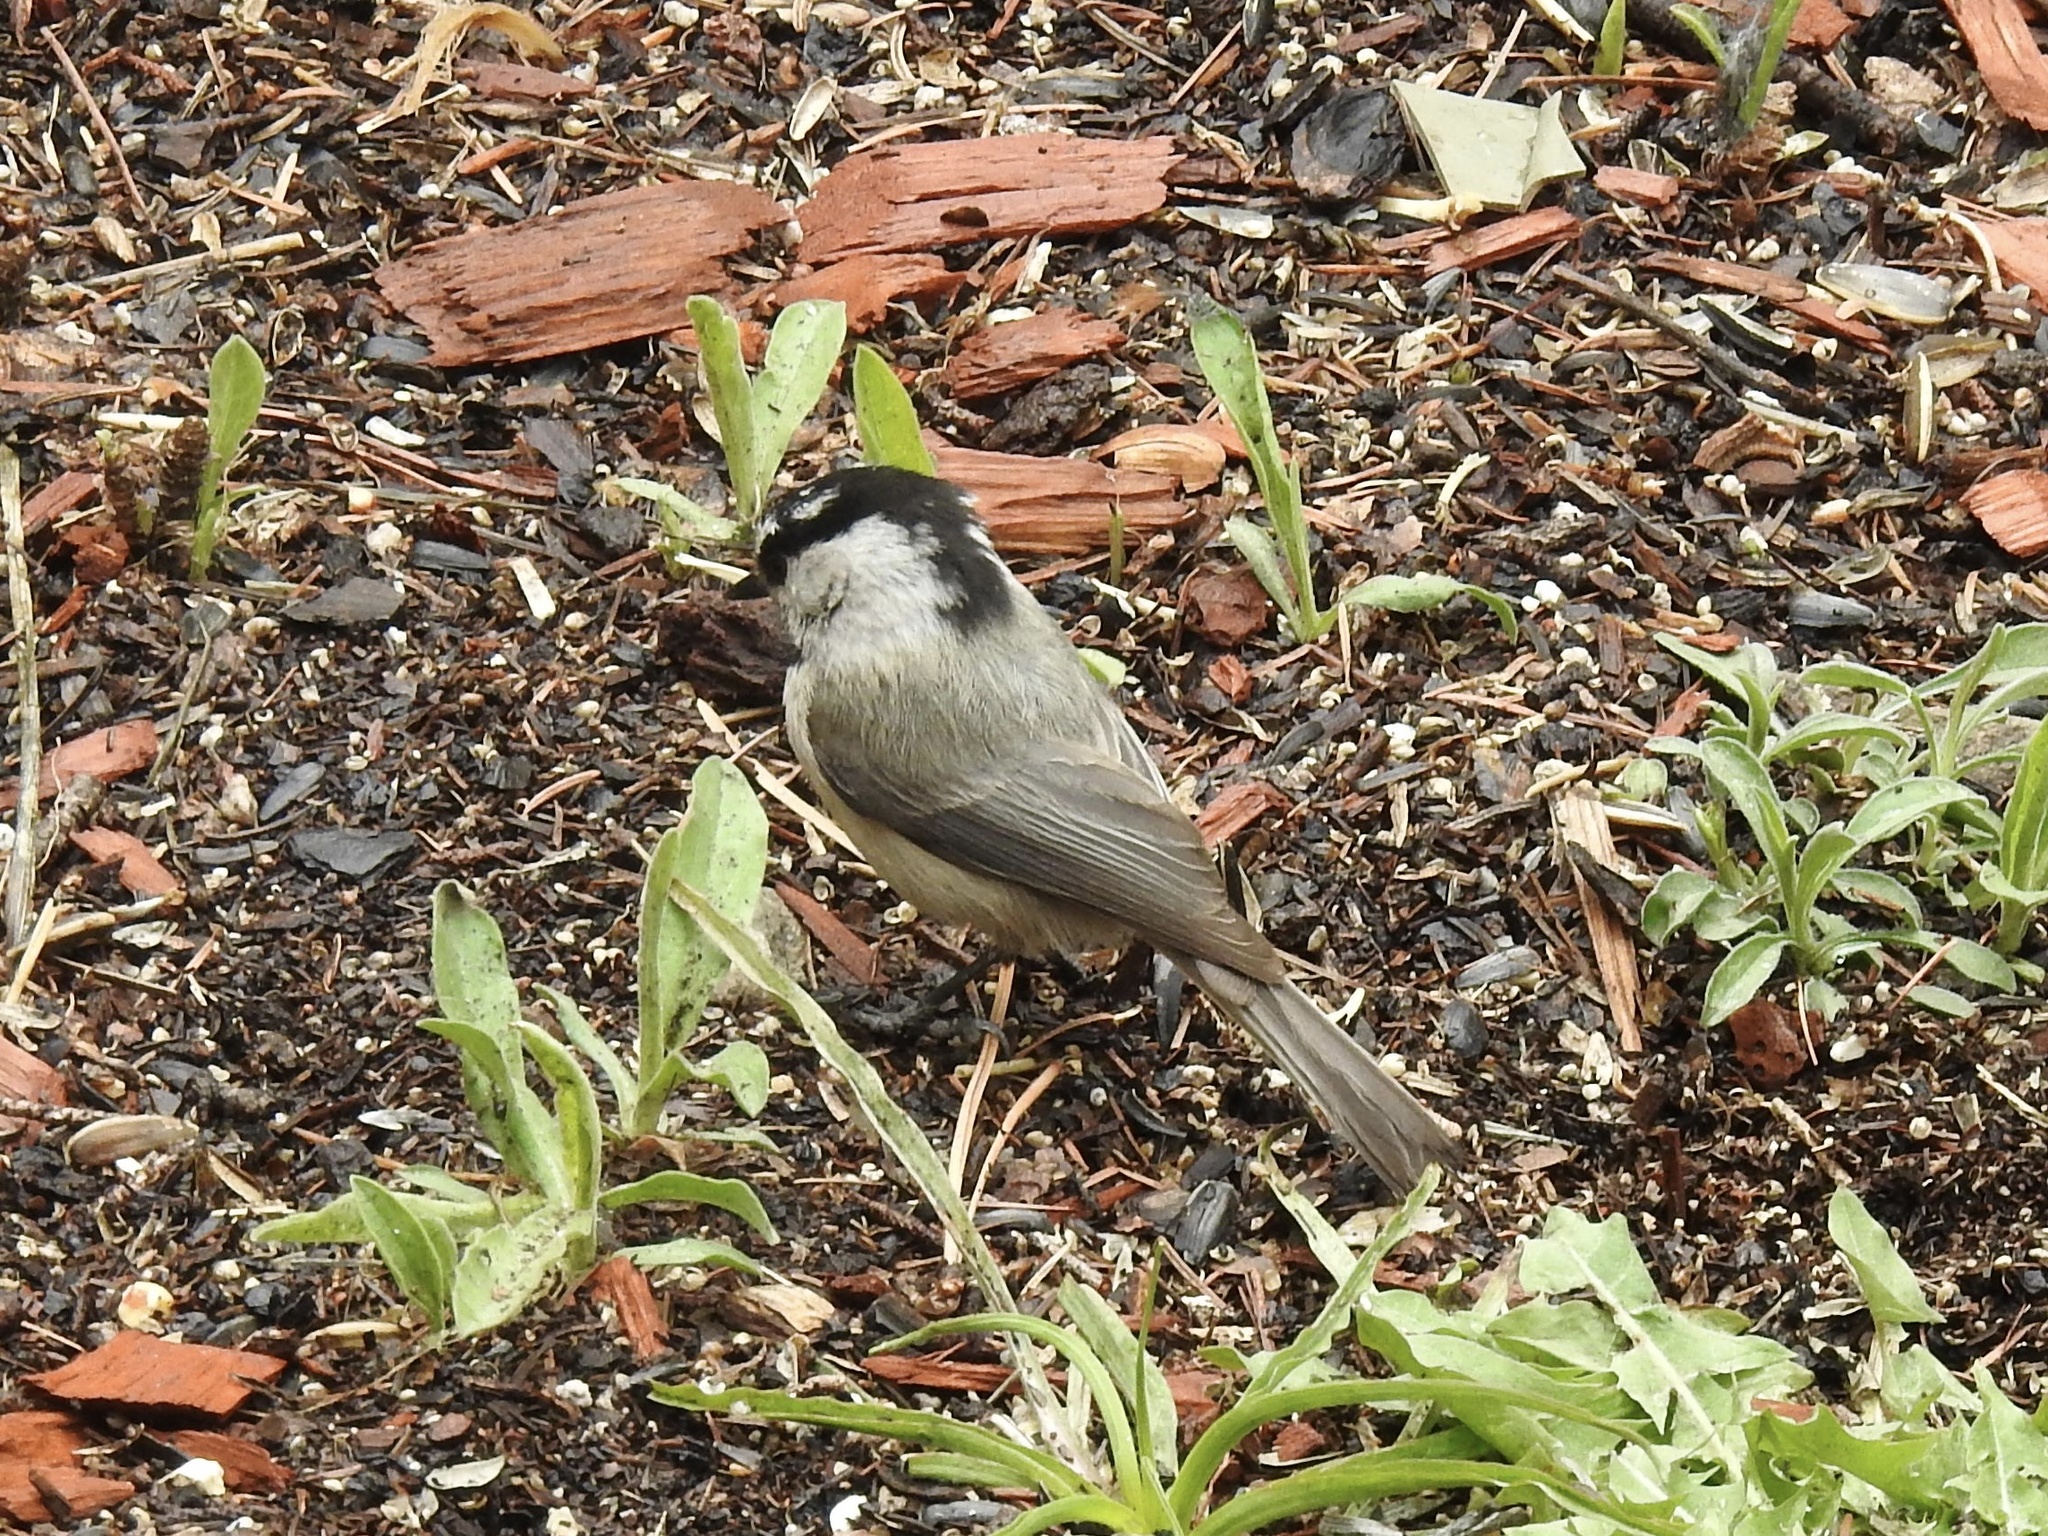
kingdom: Animalia
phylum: Chordata
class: Aves
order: Passeriformes
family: Paridae
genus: Poecile
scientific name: Poecile gambeli
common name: Mountain chickadee
